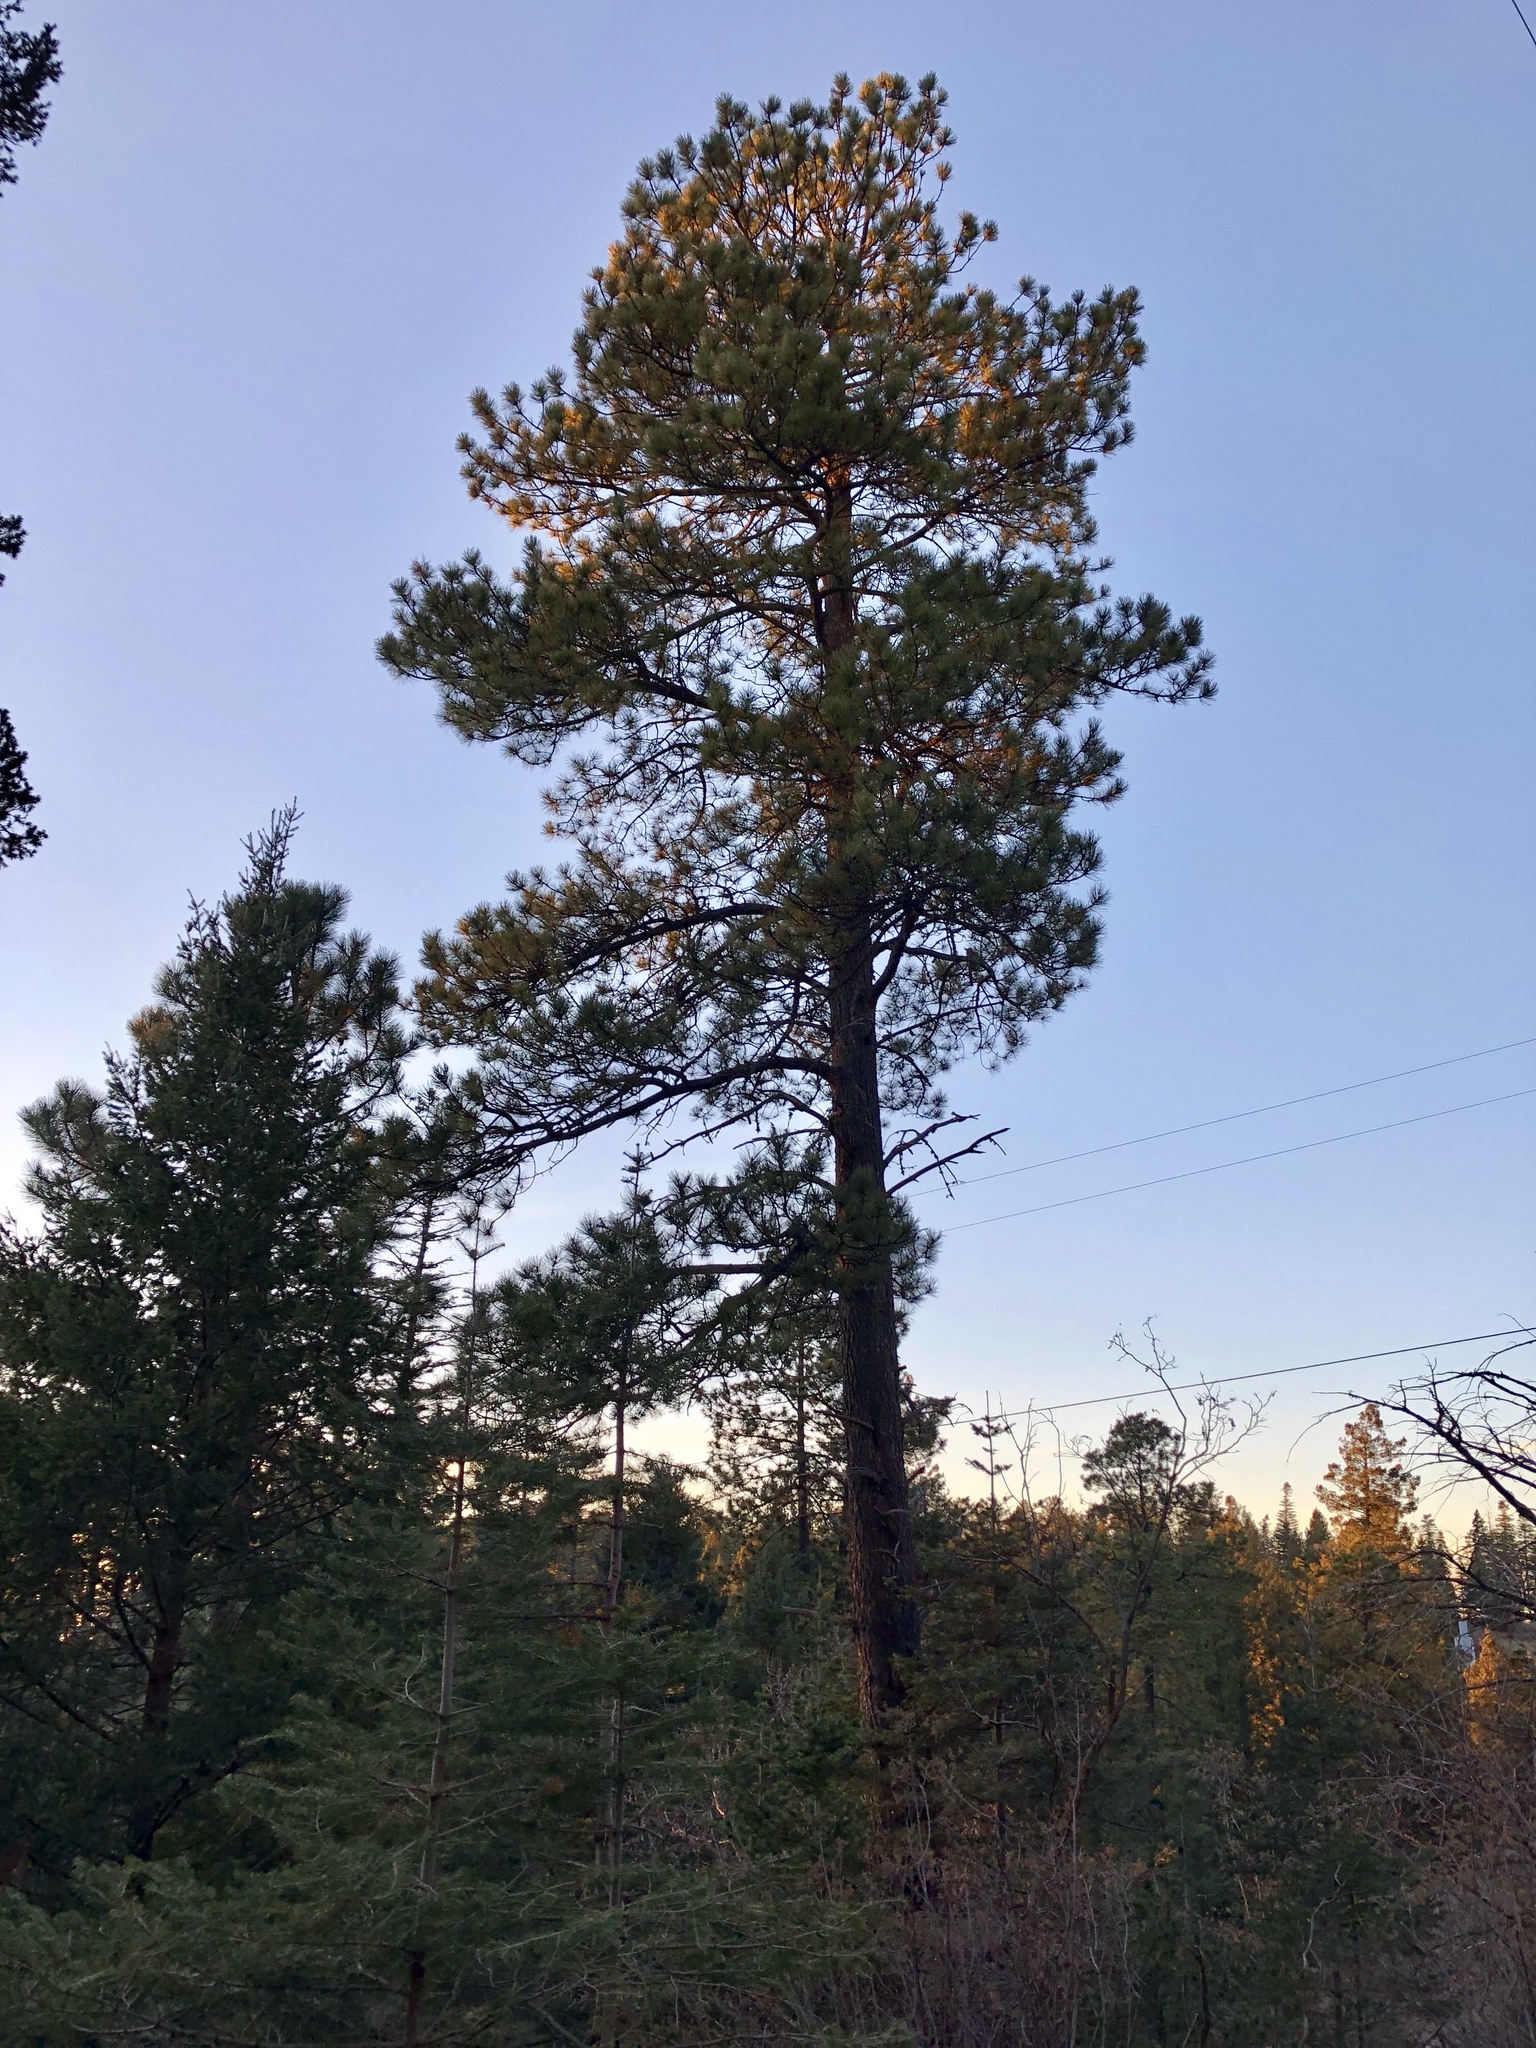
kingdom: Plantae
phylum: Tracheophyta
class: Pinopsida
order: Pinales
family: Pinaceae
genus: Pinus
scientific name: Pinus ponderosa
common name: Western yellow-pine
